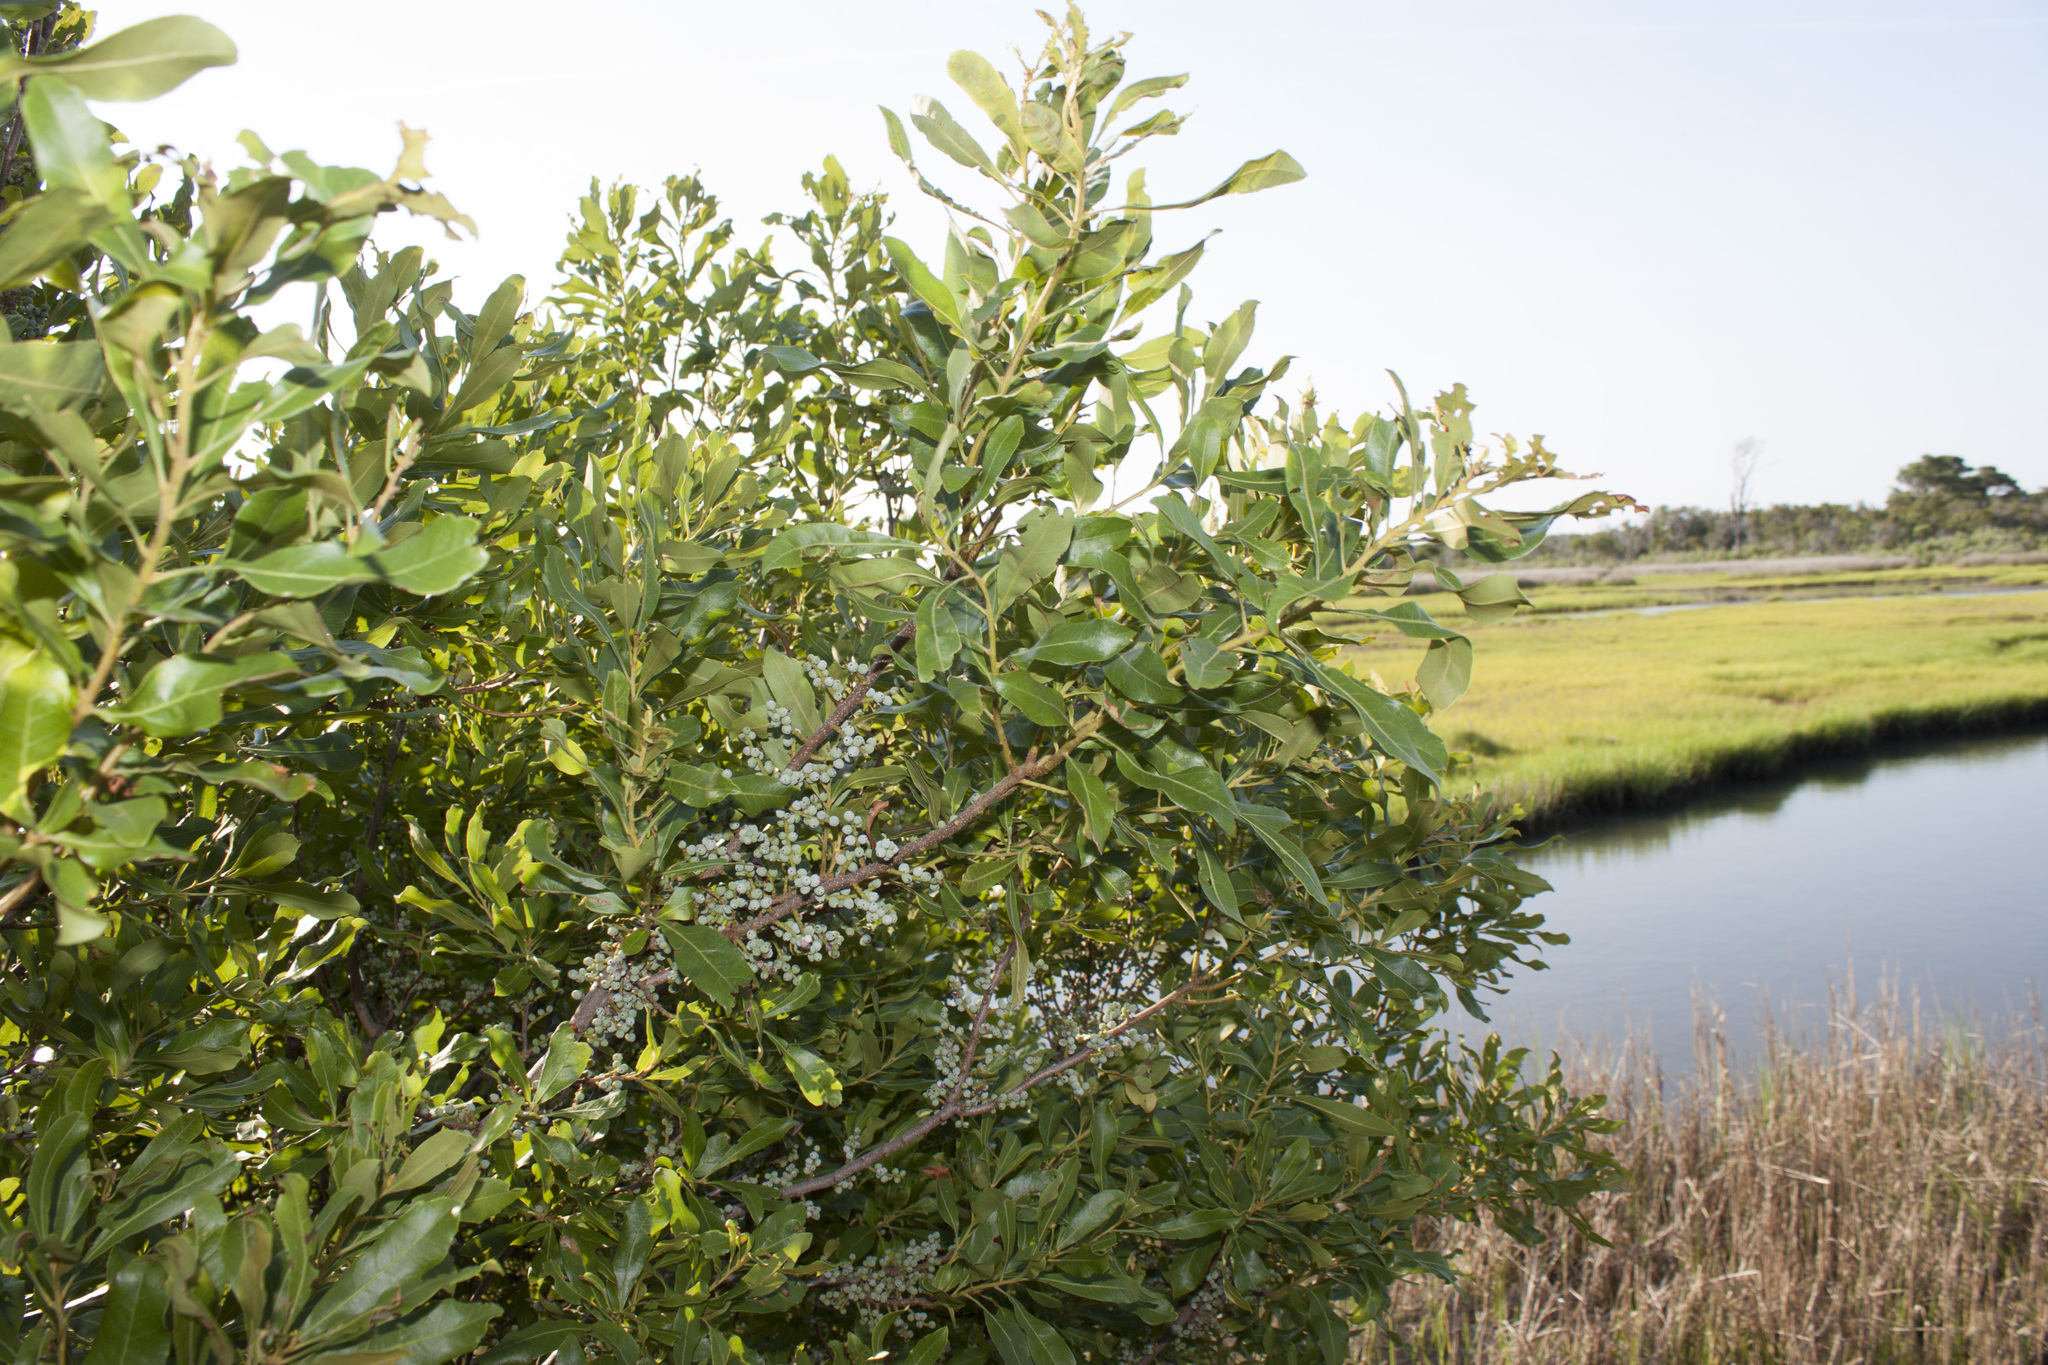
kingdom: Plantae
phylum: Tracheophyta
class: Magnoliopsida
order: Fagales
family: Myricaceae
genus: Morella
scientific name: Morella pensylvanica
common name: Northern bayberry
